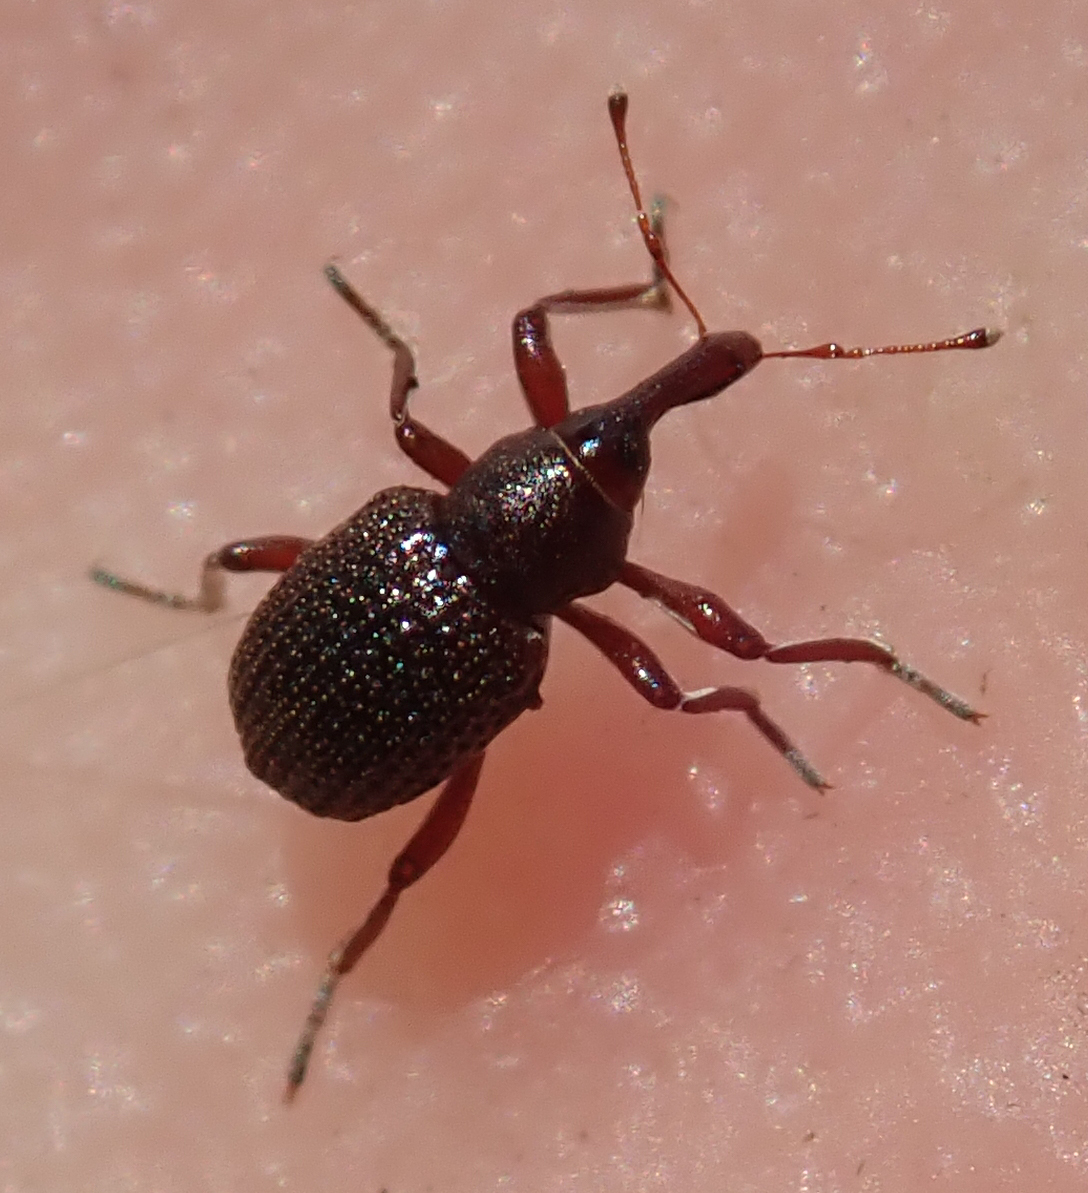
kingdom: Animalia
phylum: Arthropoda
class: Insecta
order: Coleoptera
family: Brachyceridae
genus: Cyrtobagous
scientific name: Cyrtobagous salviniae
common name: Salvinia weevil
